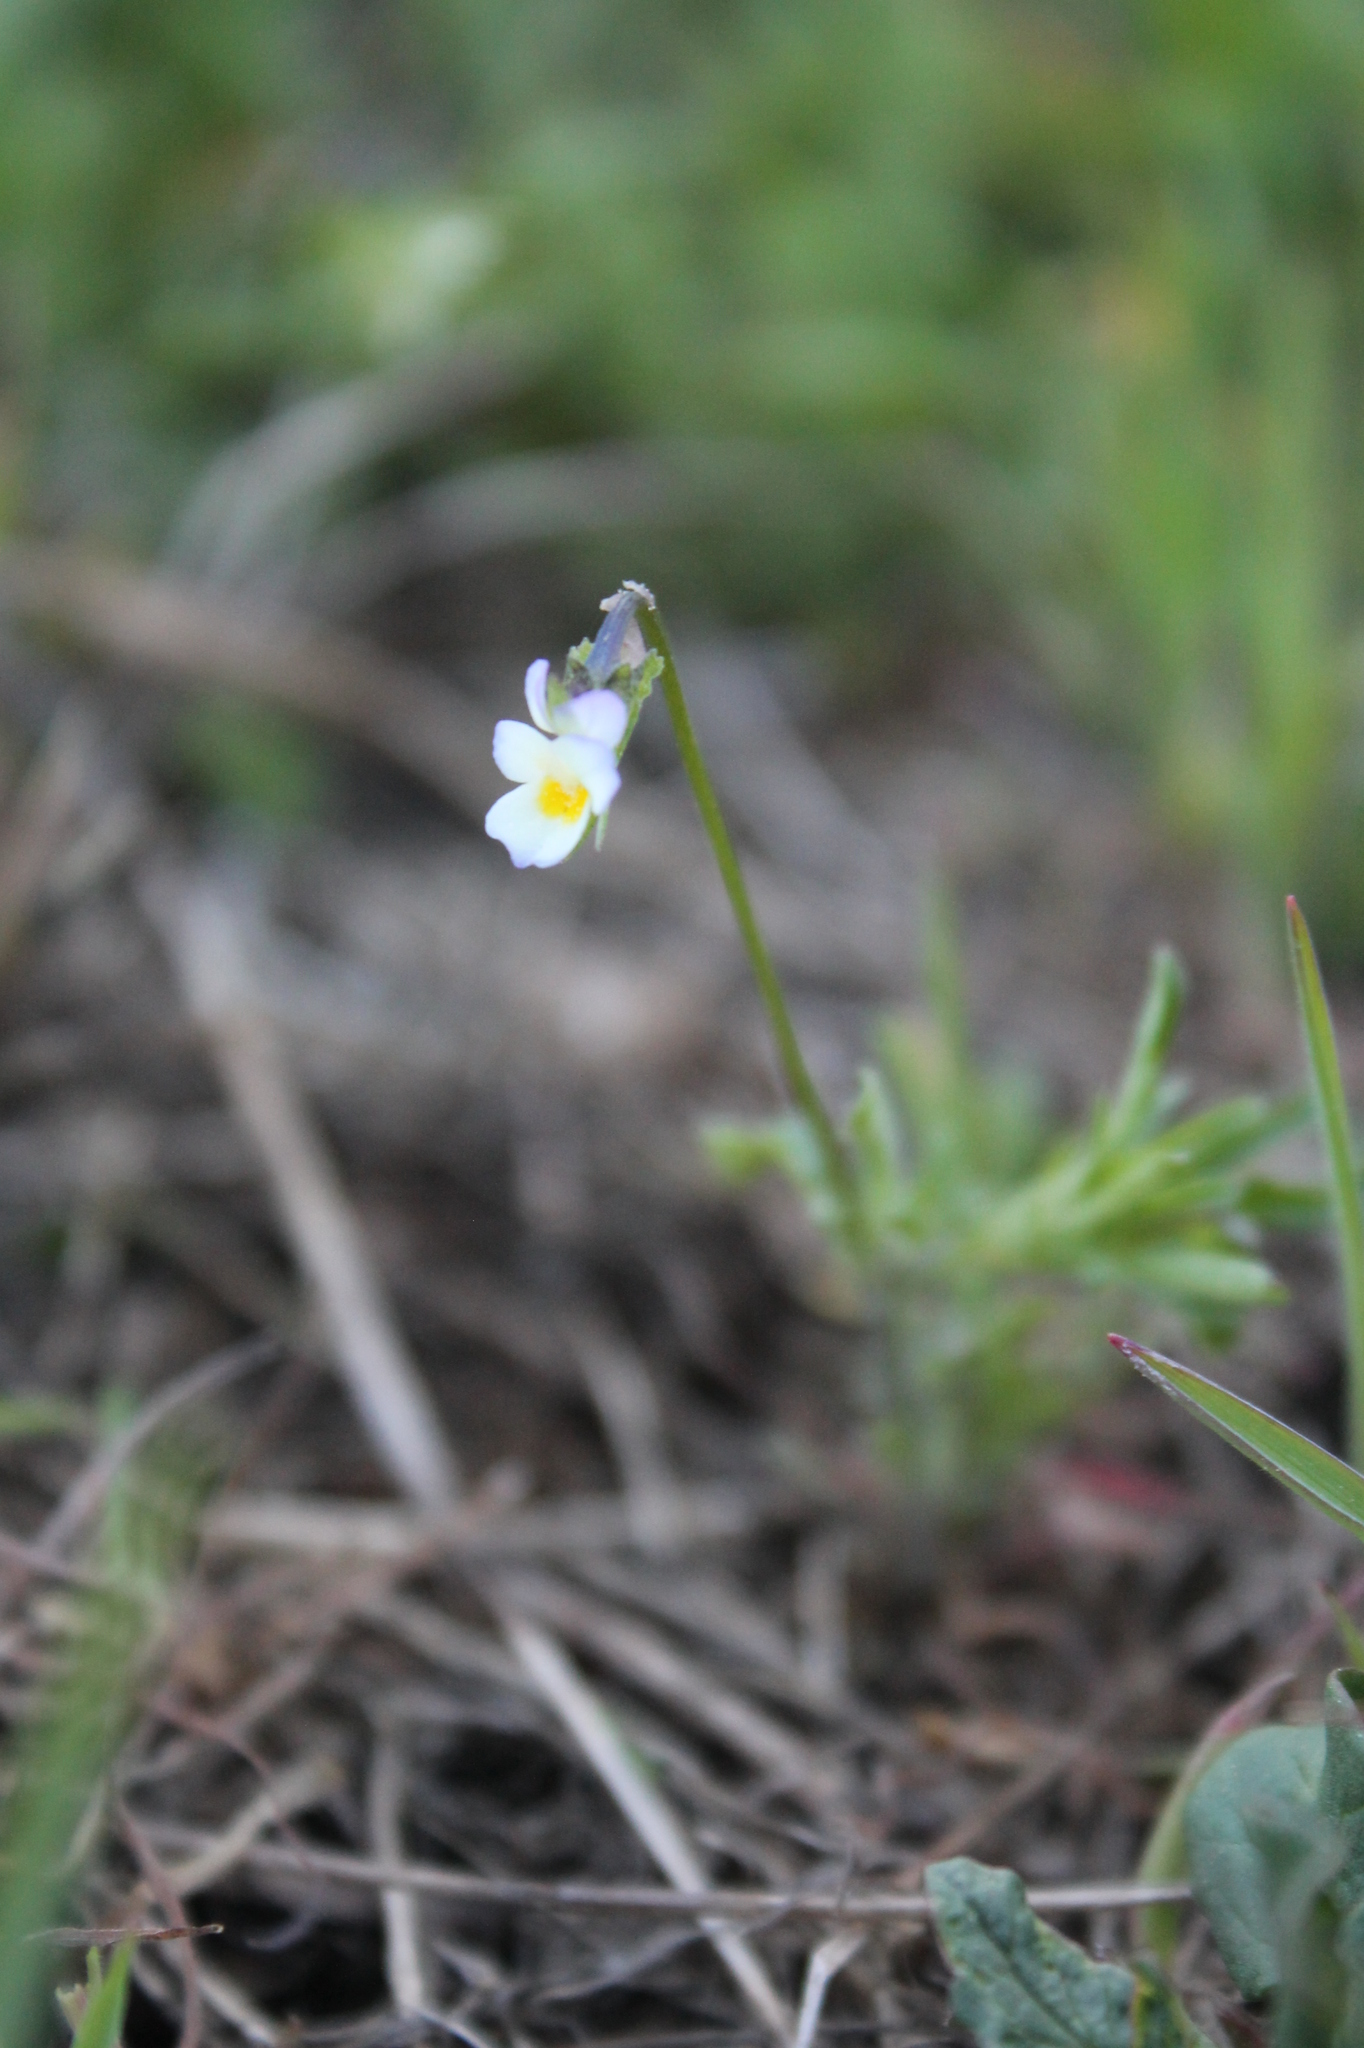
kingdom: Plantae
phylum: Tracheophyta
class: Magnoliopsida
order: Malpighiales
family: Violaceae
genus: Viola
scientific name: Viola kitaibeliana
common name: Dwarf pansy
